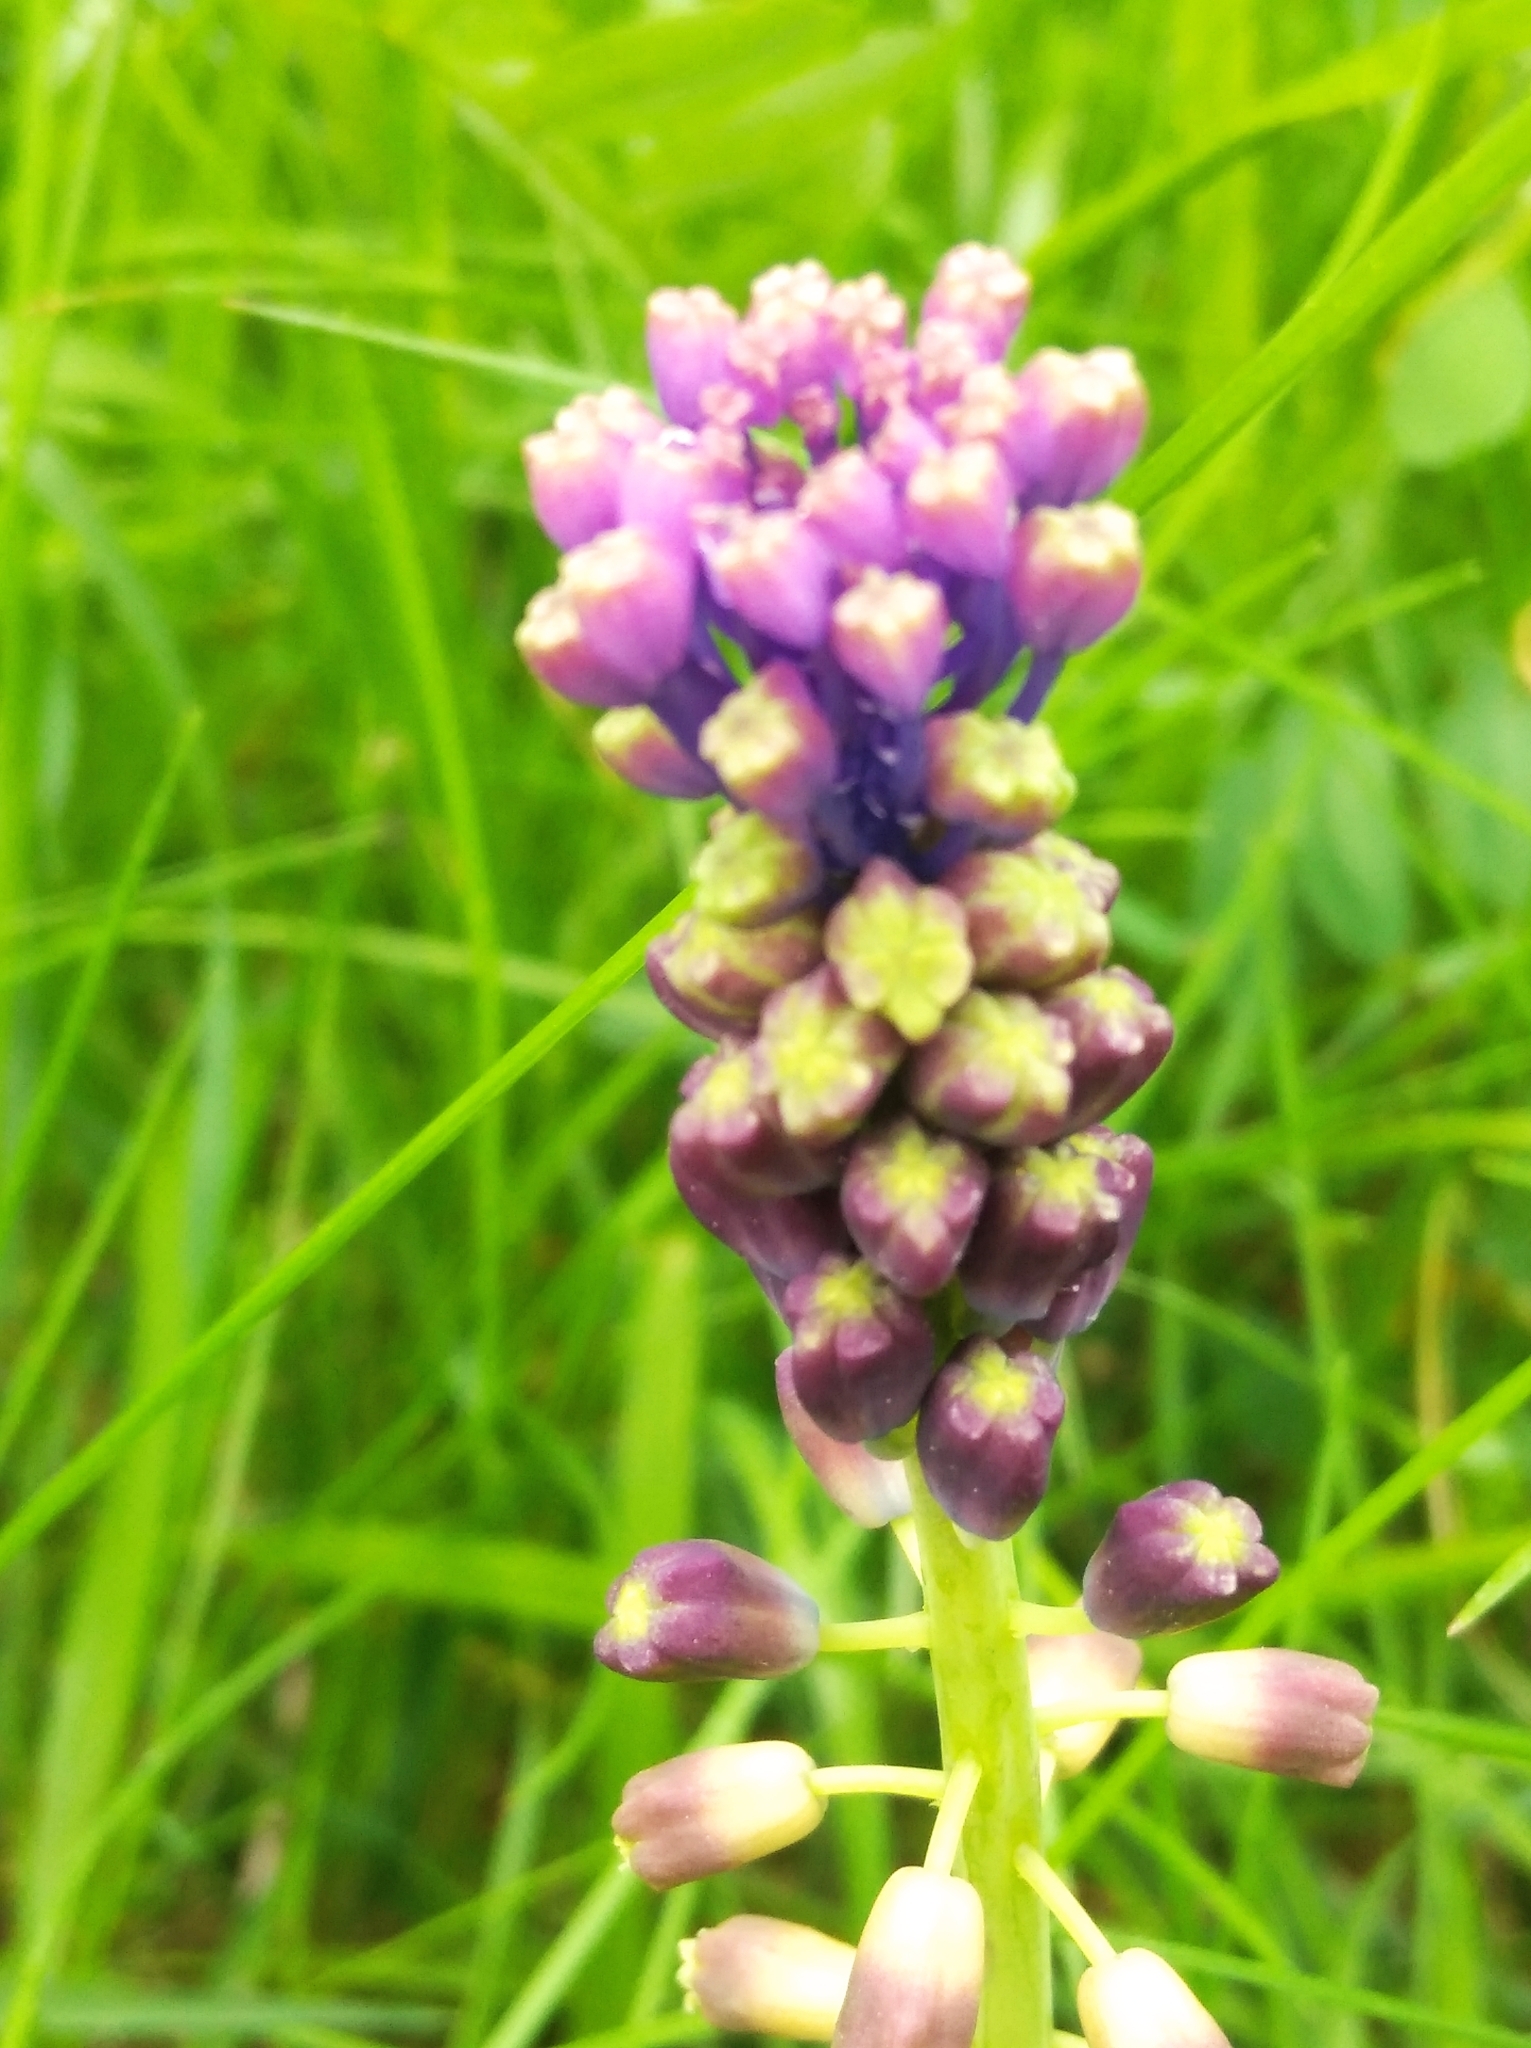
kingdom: Plantae
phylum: Tracheophyta
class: Liliopsida
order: Asparagales
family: Asparagaceae
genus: Muscari
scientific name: Muscari comosum
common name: Tassel hyacinth
